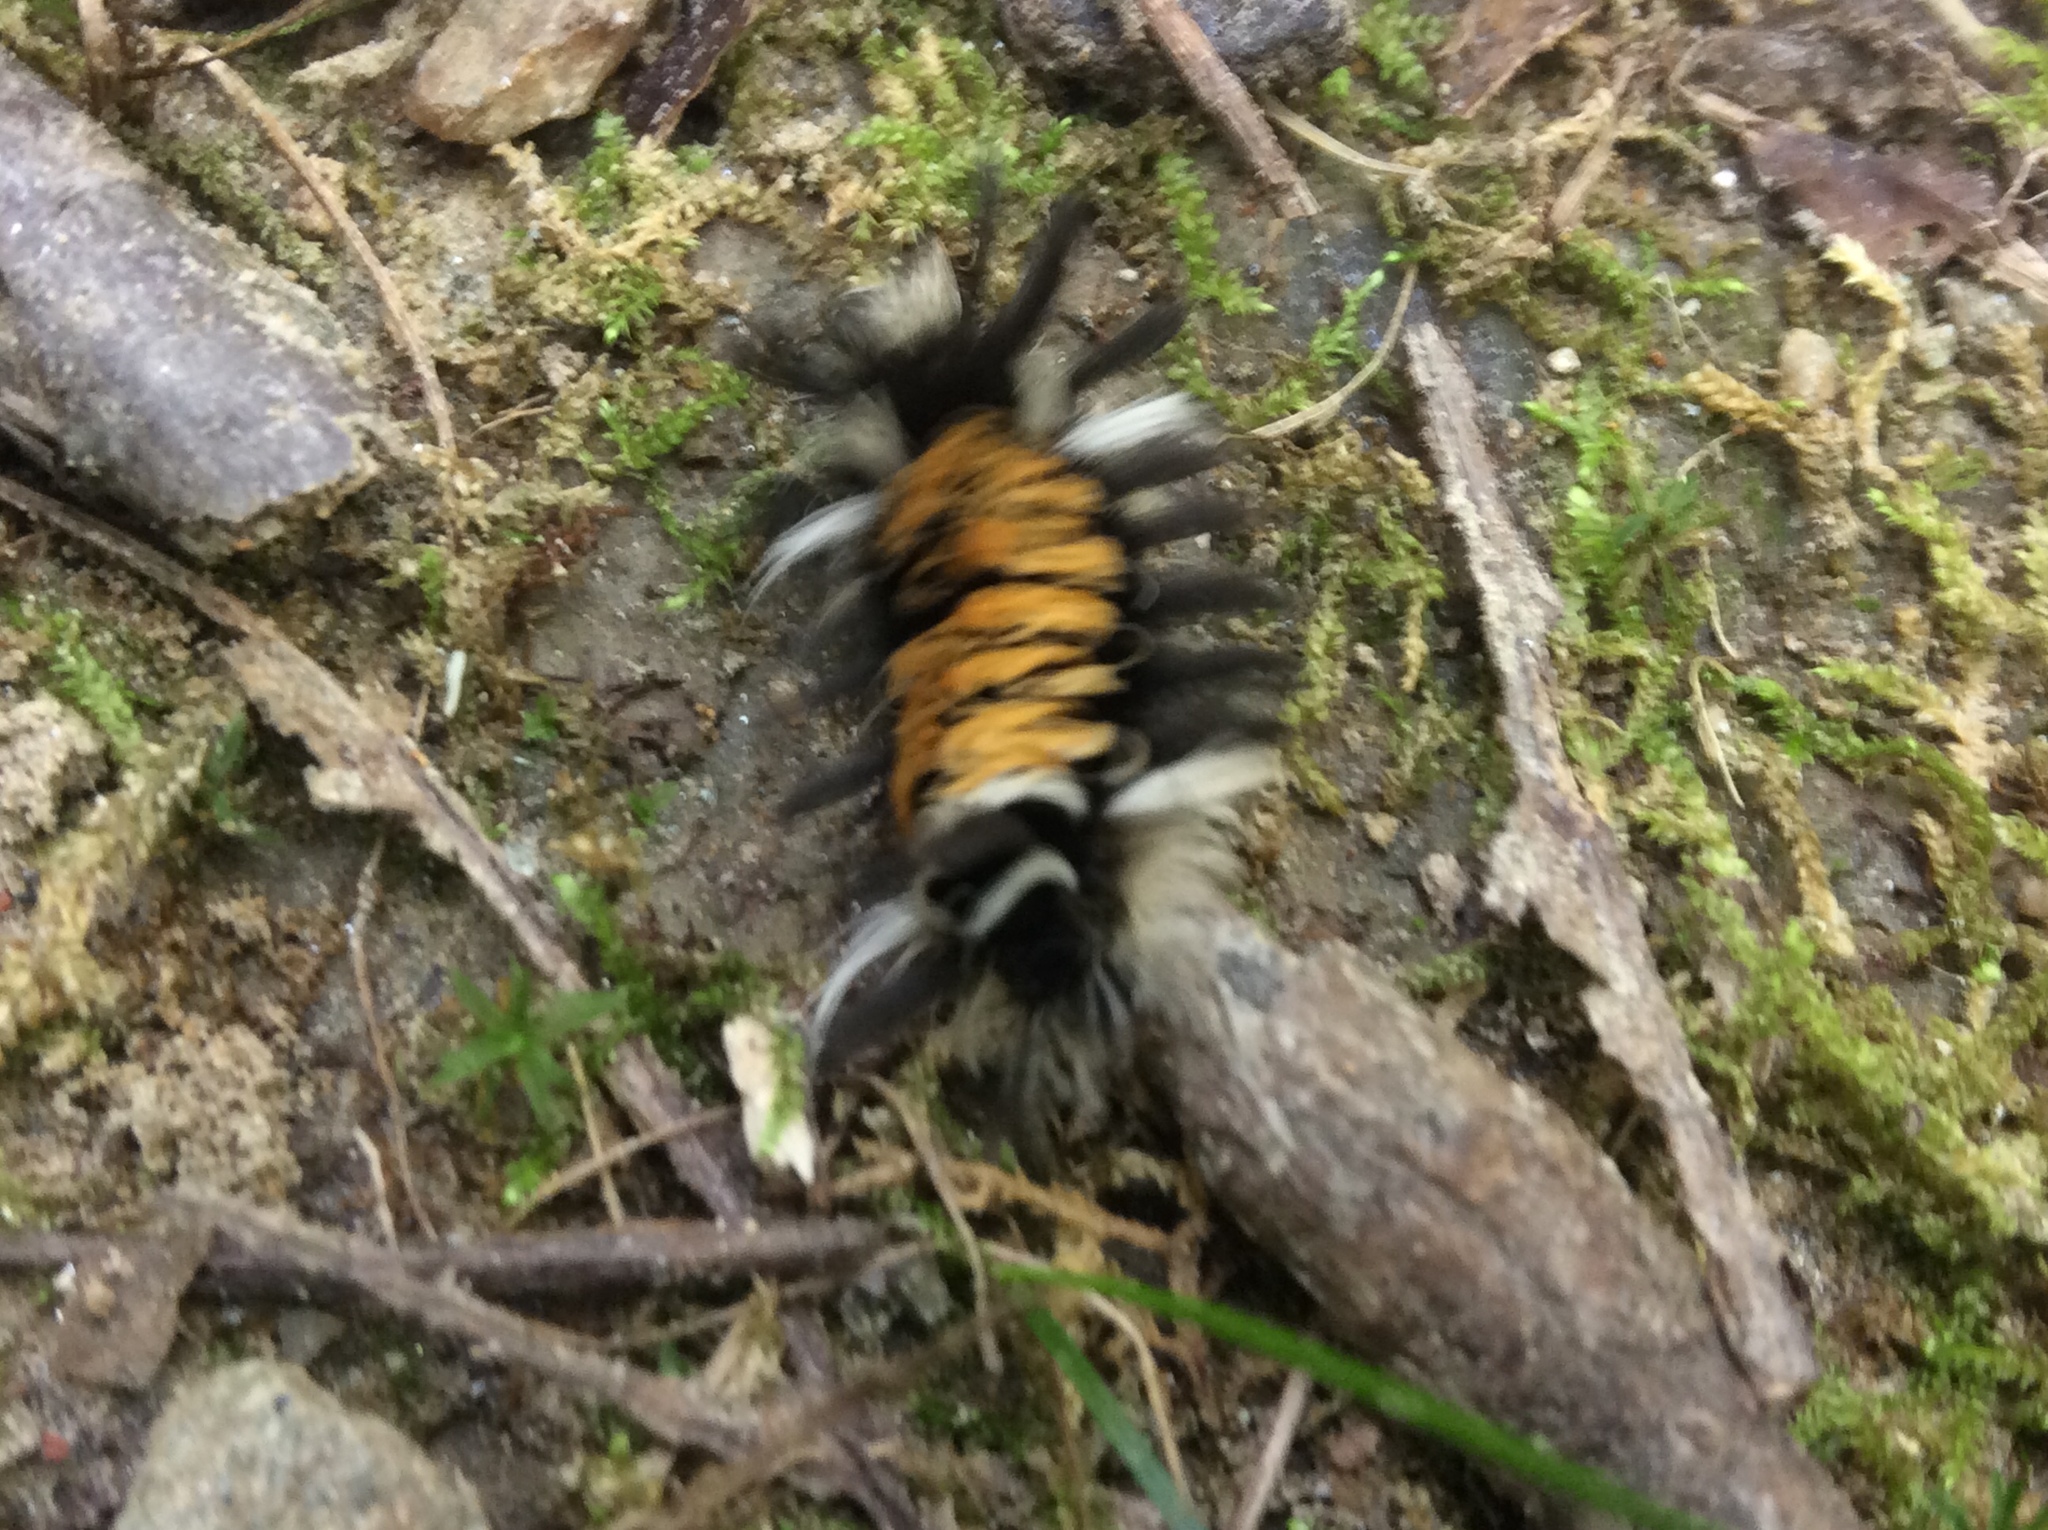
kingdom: Animalia
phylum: Arthropoda
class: Insecta
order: Lepidoptera
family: Erebidae
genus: Euchaetes
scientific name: Euchaetes egle
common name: Milkweed tussock moth
